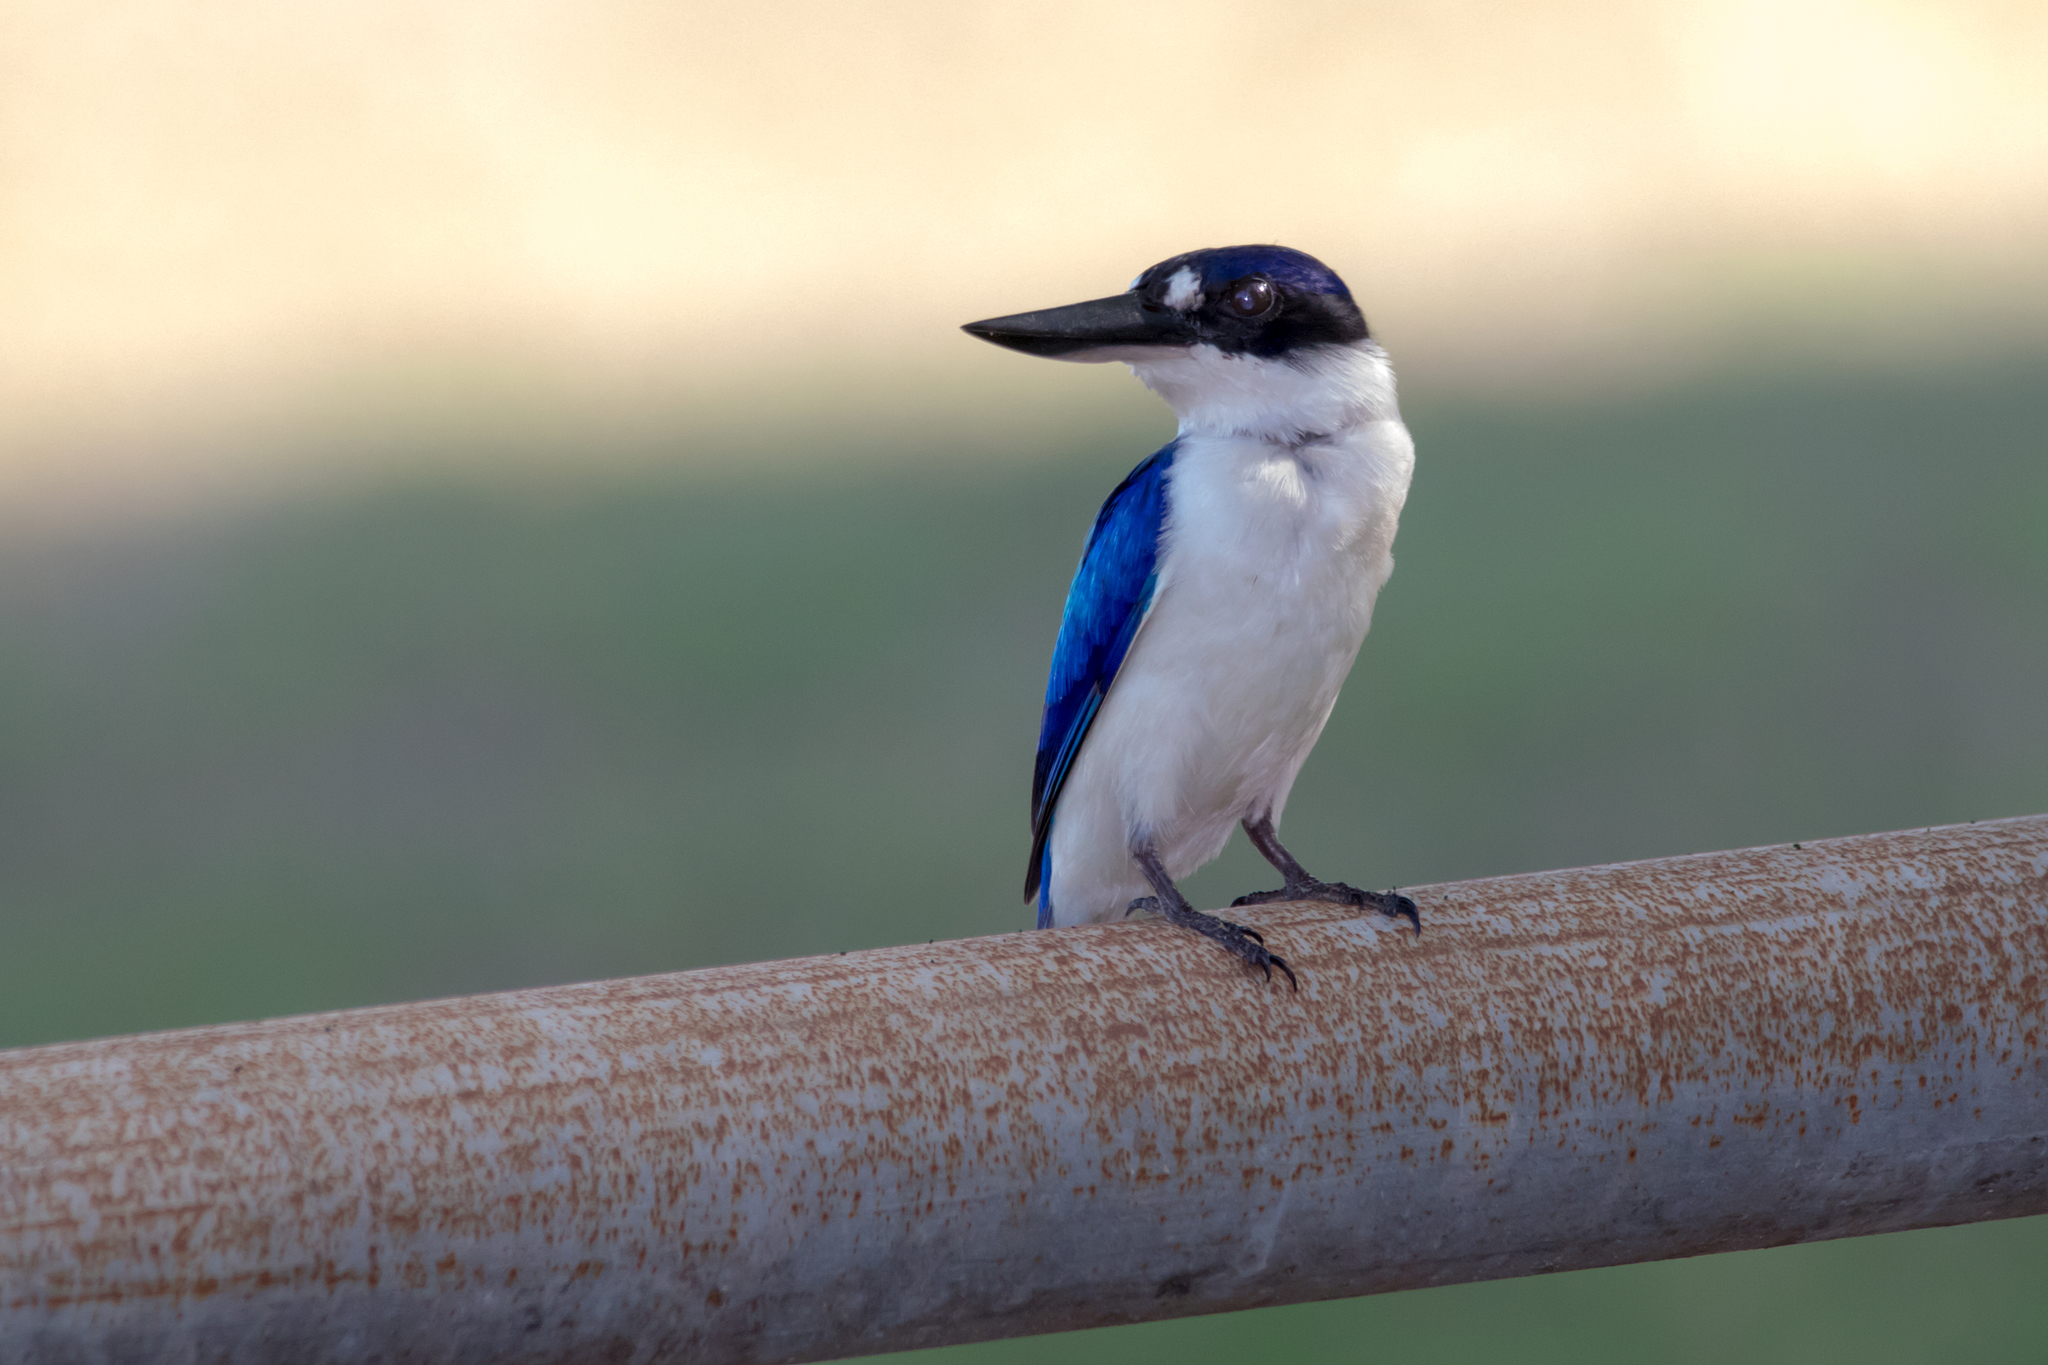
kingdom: Animalia
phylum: Chordata
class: Aves
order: Coraciiformes
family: Alcedinidae
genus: Todiramphus
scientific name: Todiramphus macleayii
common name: Forest kingfisher
